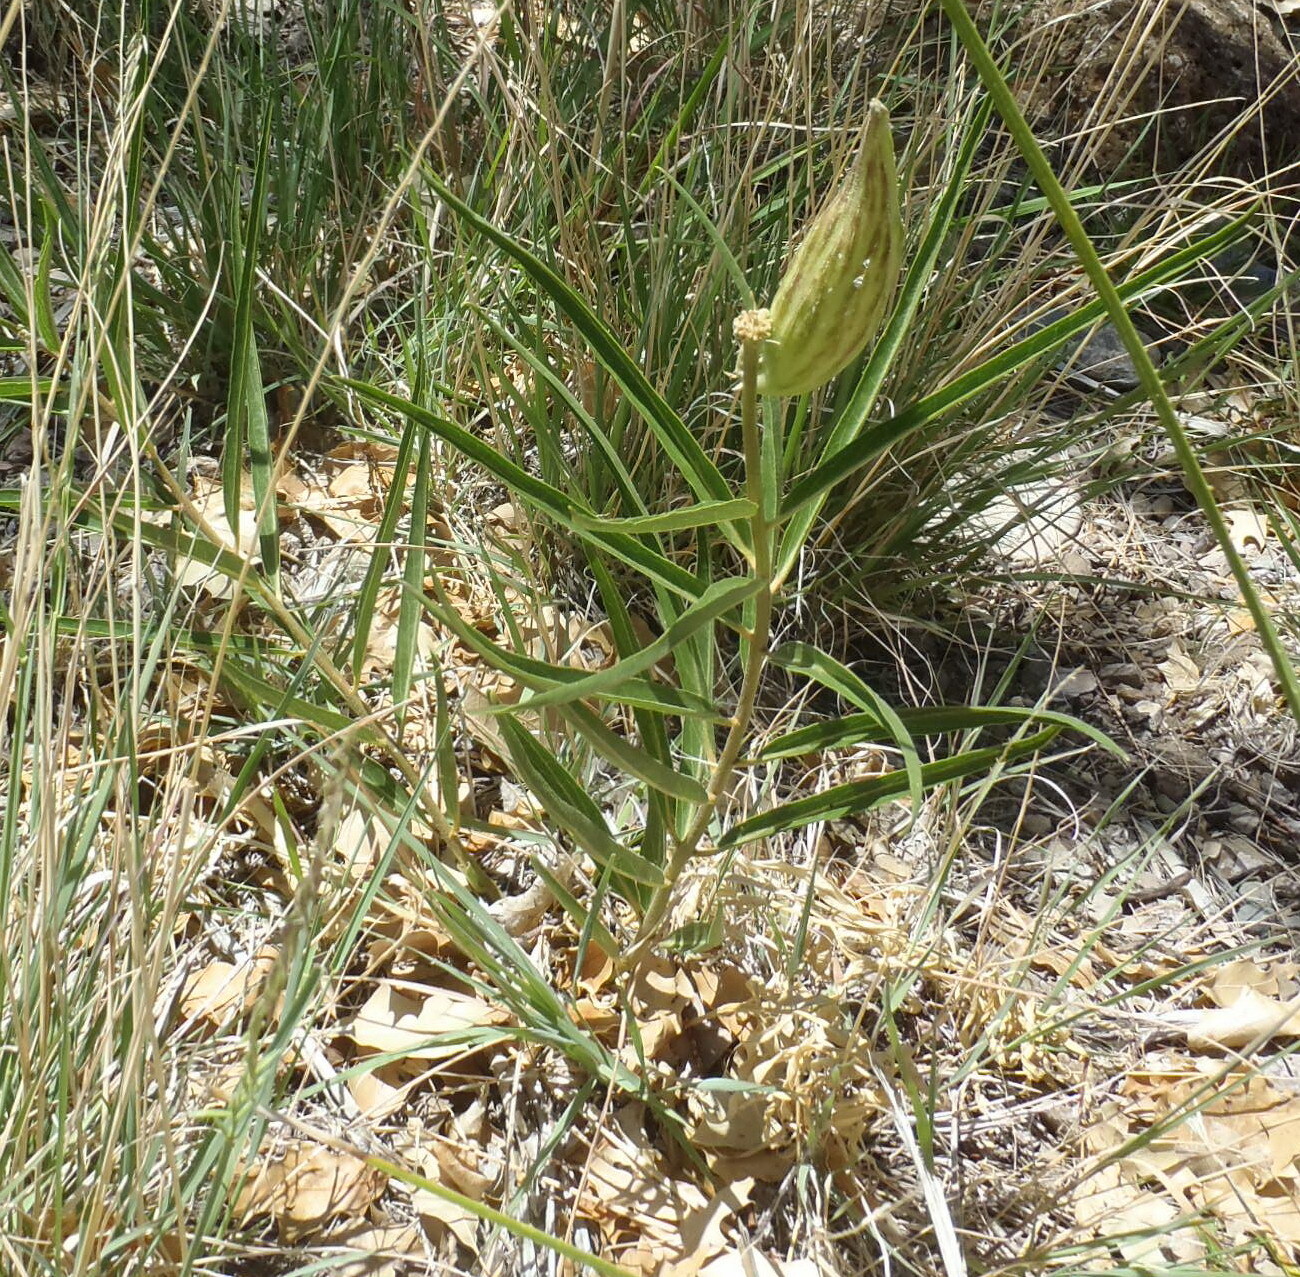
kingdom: Plantae
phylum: Tracheophyta
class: Magnoliopsida
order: Gentianales
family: Apocynaceae
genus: Asclepias
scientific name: Asclepias asperula
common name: Antelope horns
